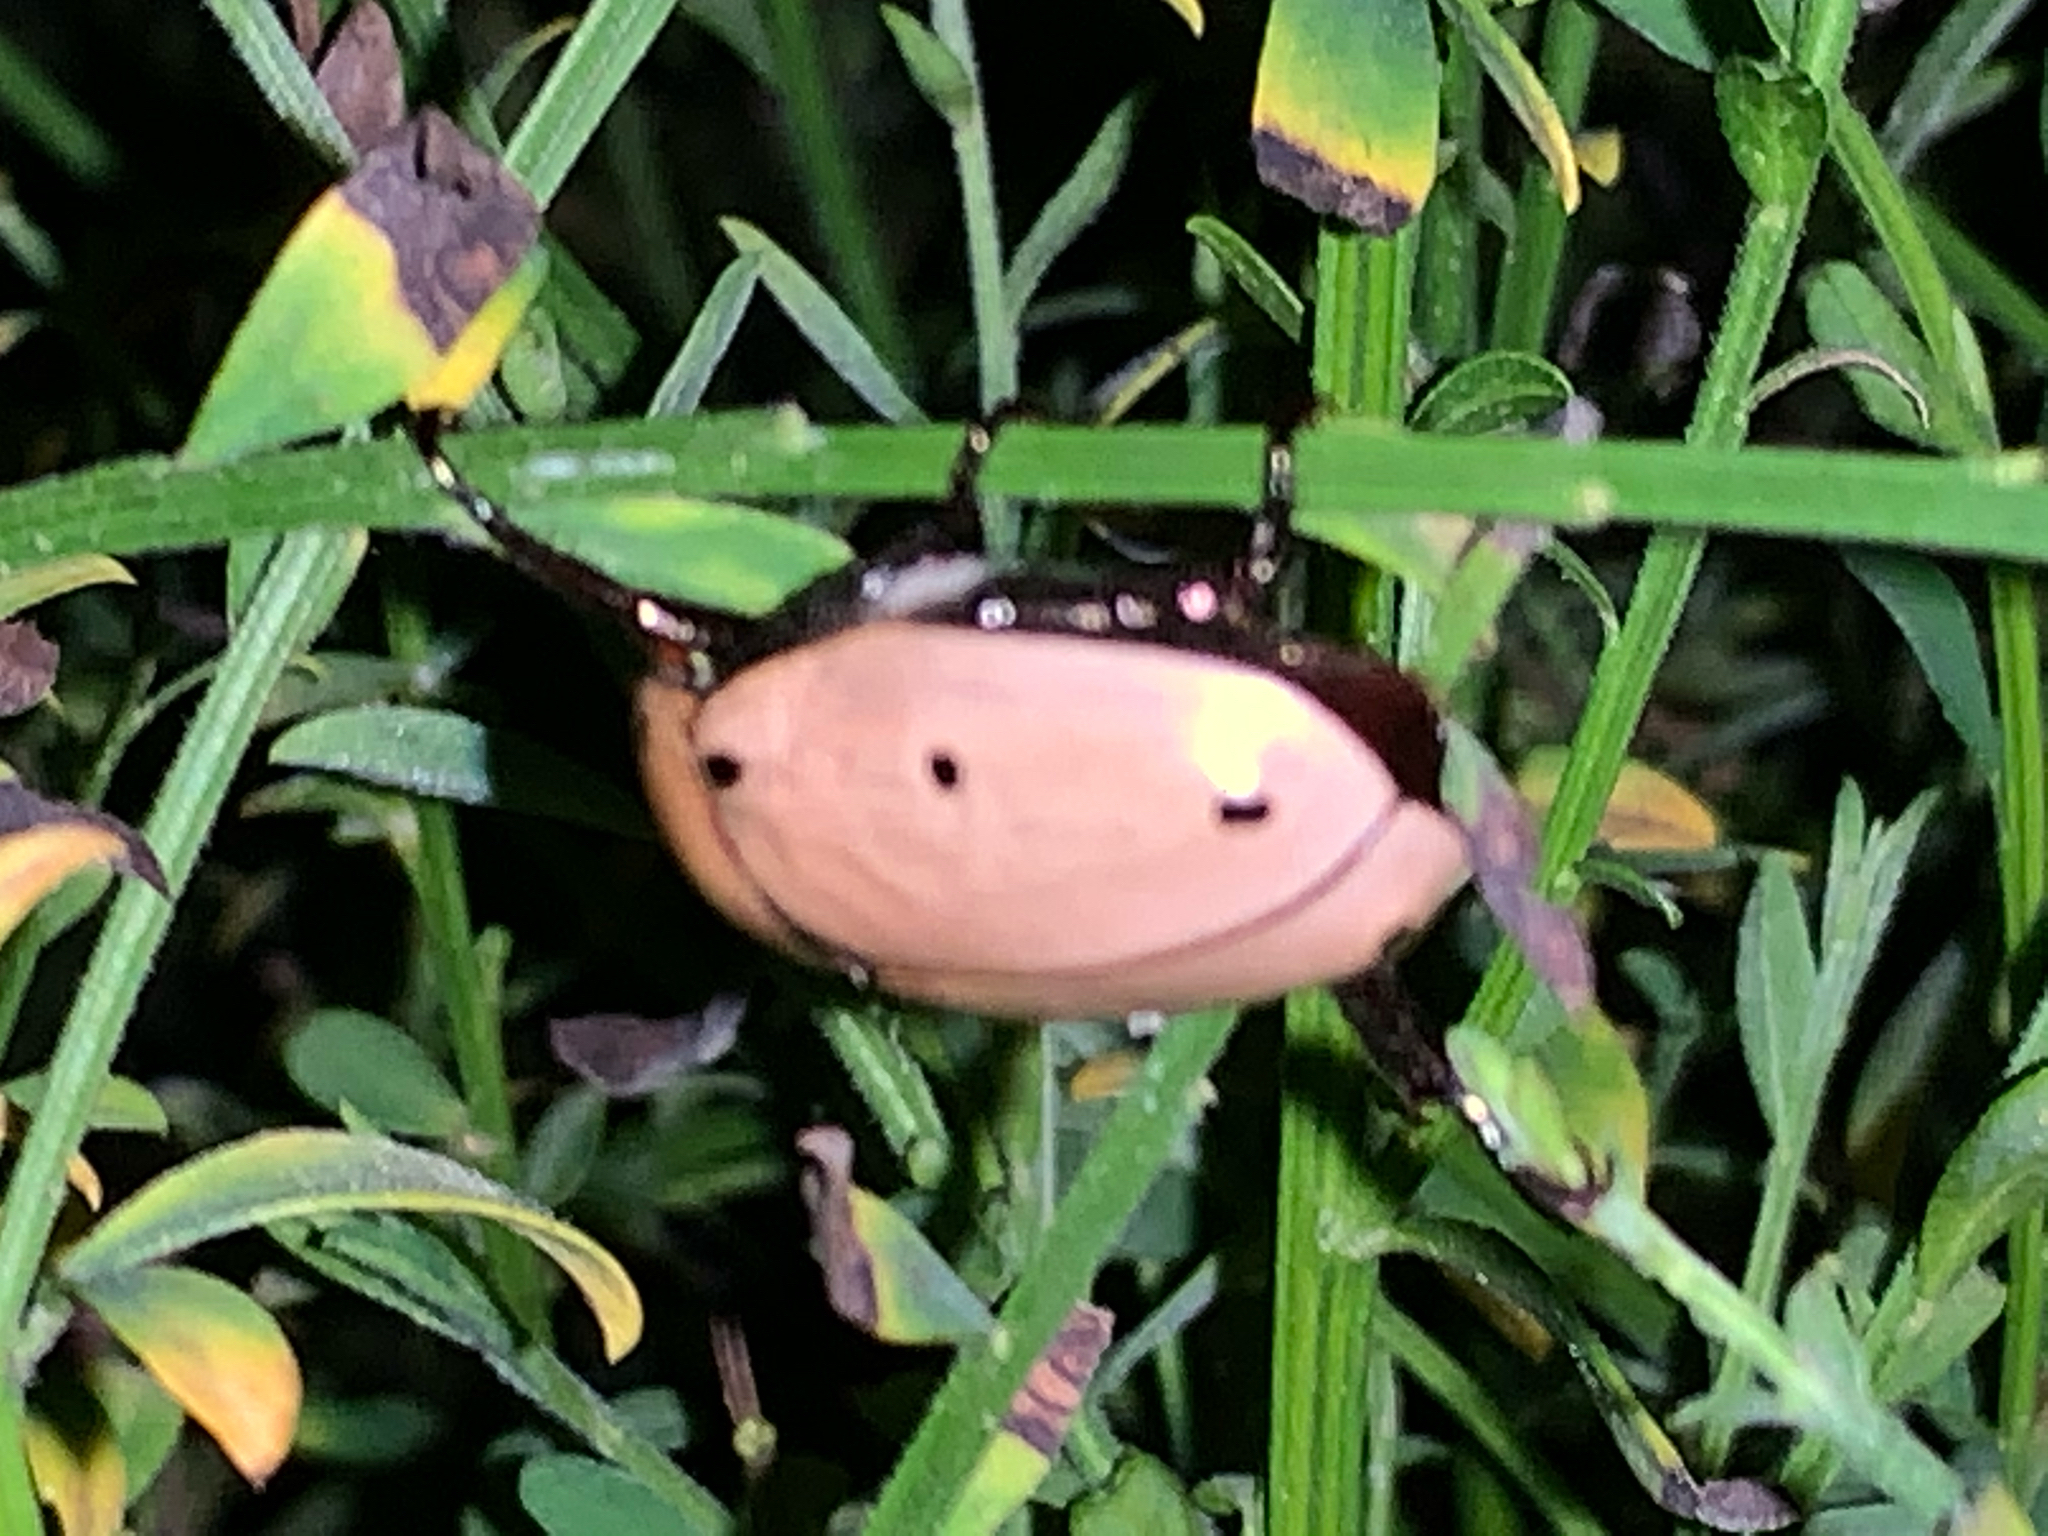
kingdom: Animalia
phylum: Arthropoda
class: Insecta
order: Coleoptera
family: Scarabaeidae
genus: Pelidnota
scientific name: Pelidnota punctata
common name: Grapevine beetle
